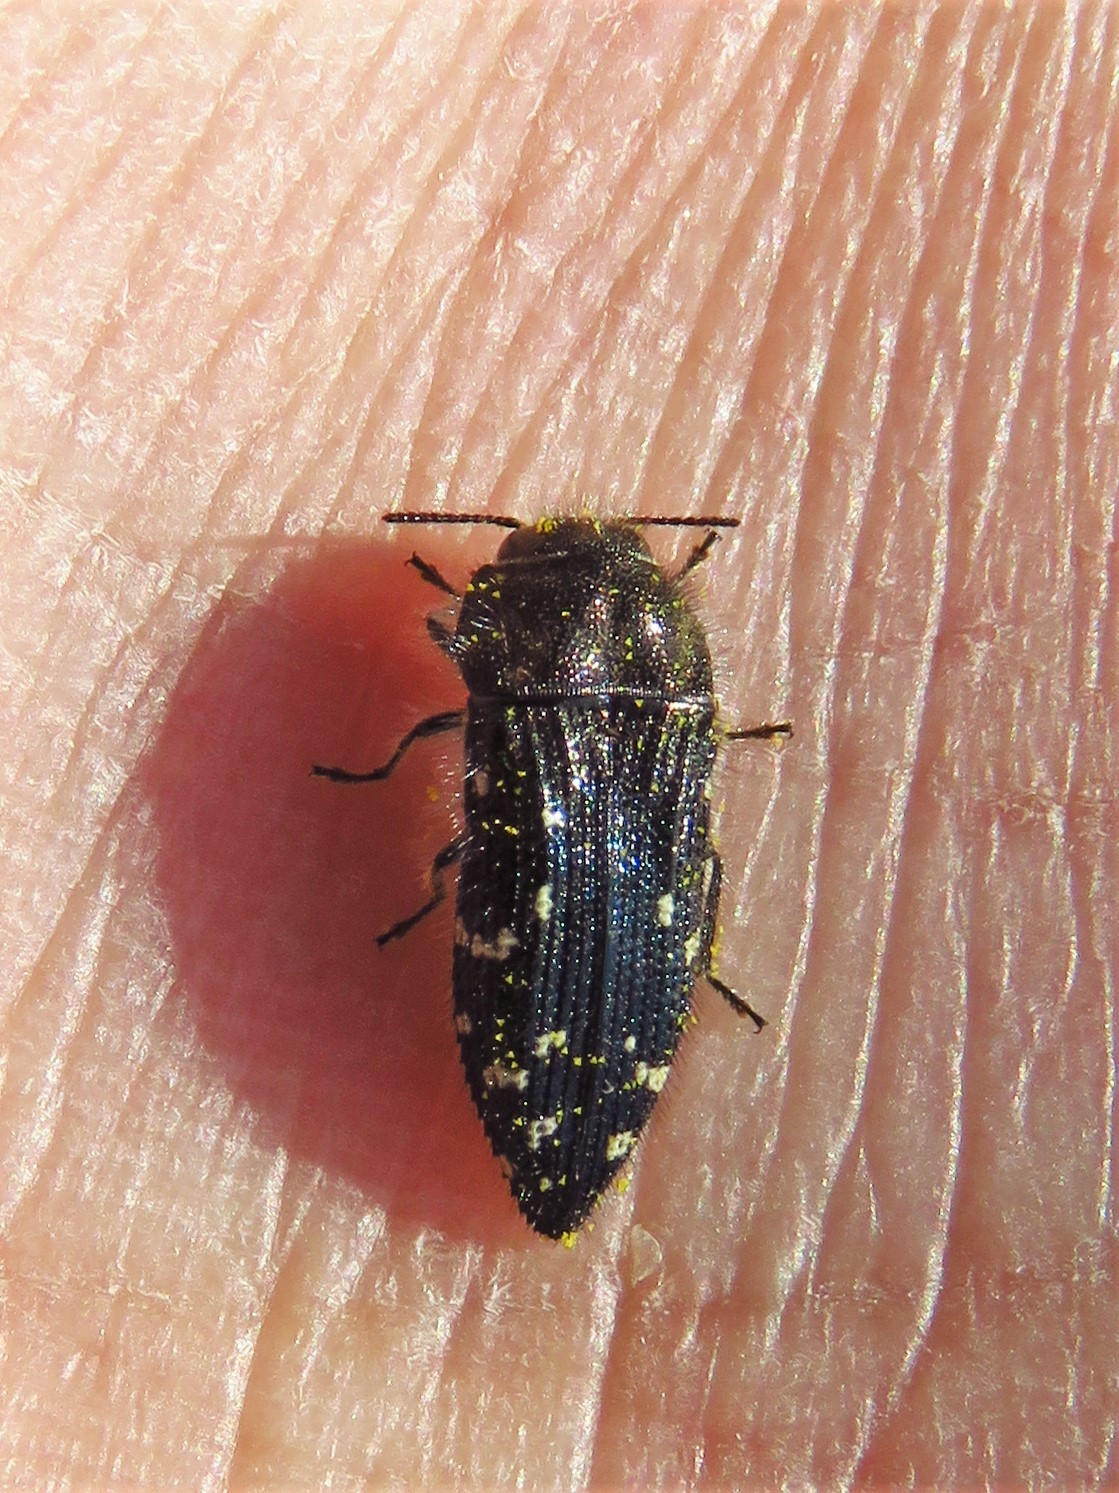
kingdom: Animalia
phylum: Arthropoda
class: Insecta
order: Coleoptera
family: Buprestidae
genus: Acmaeodera
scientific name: Acmaeodera ornatoides
